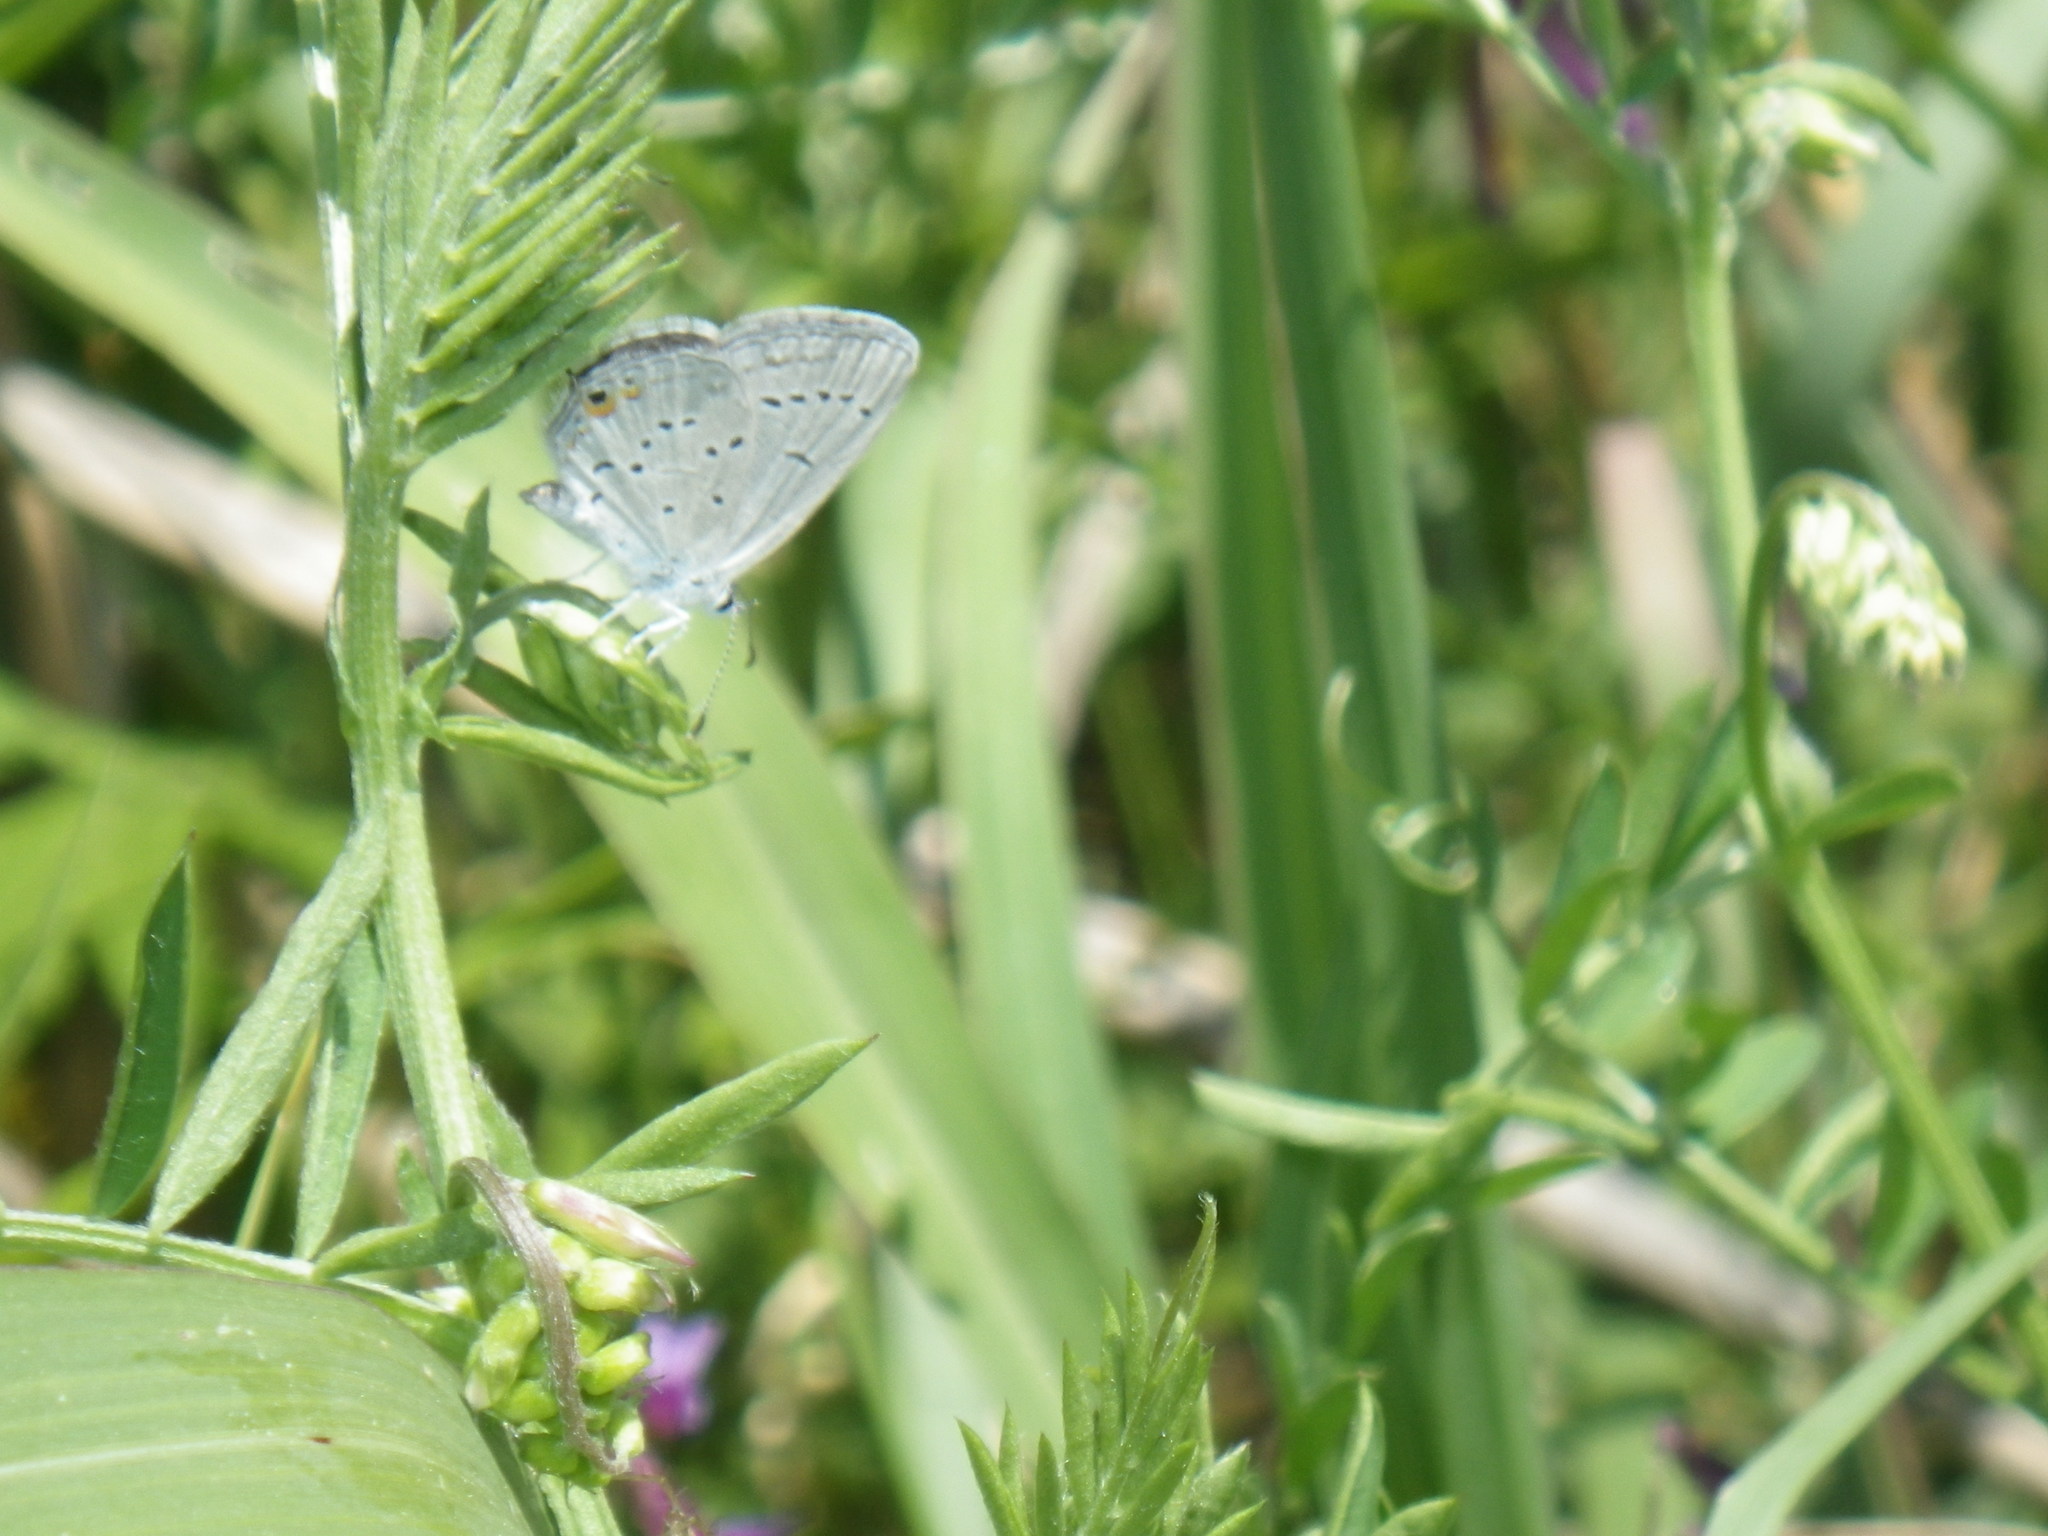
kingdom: Animalia
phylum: Arthropoda
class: Insecta
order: Lepidoptera
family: Lycaenidae
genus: Elkalyce
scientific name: Elkalyce comyntas
